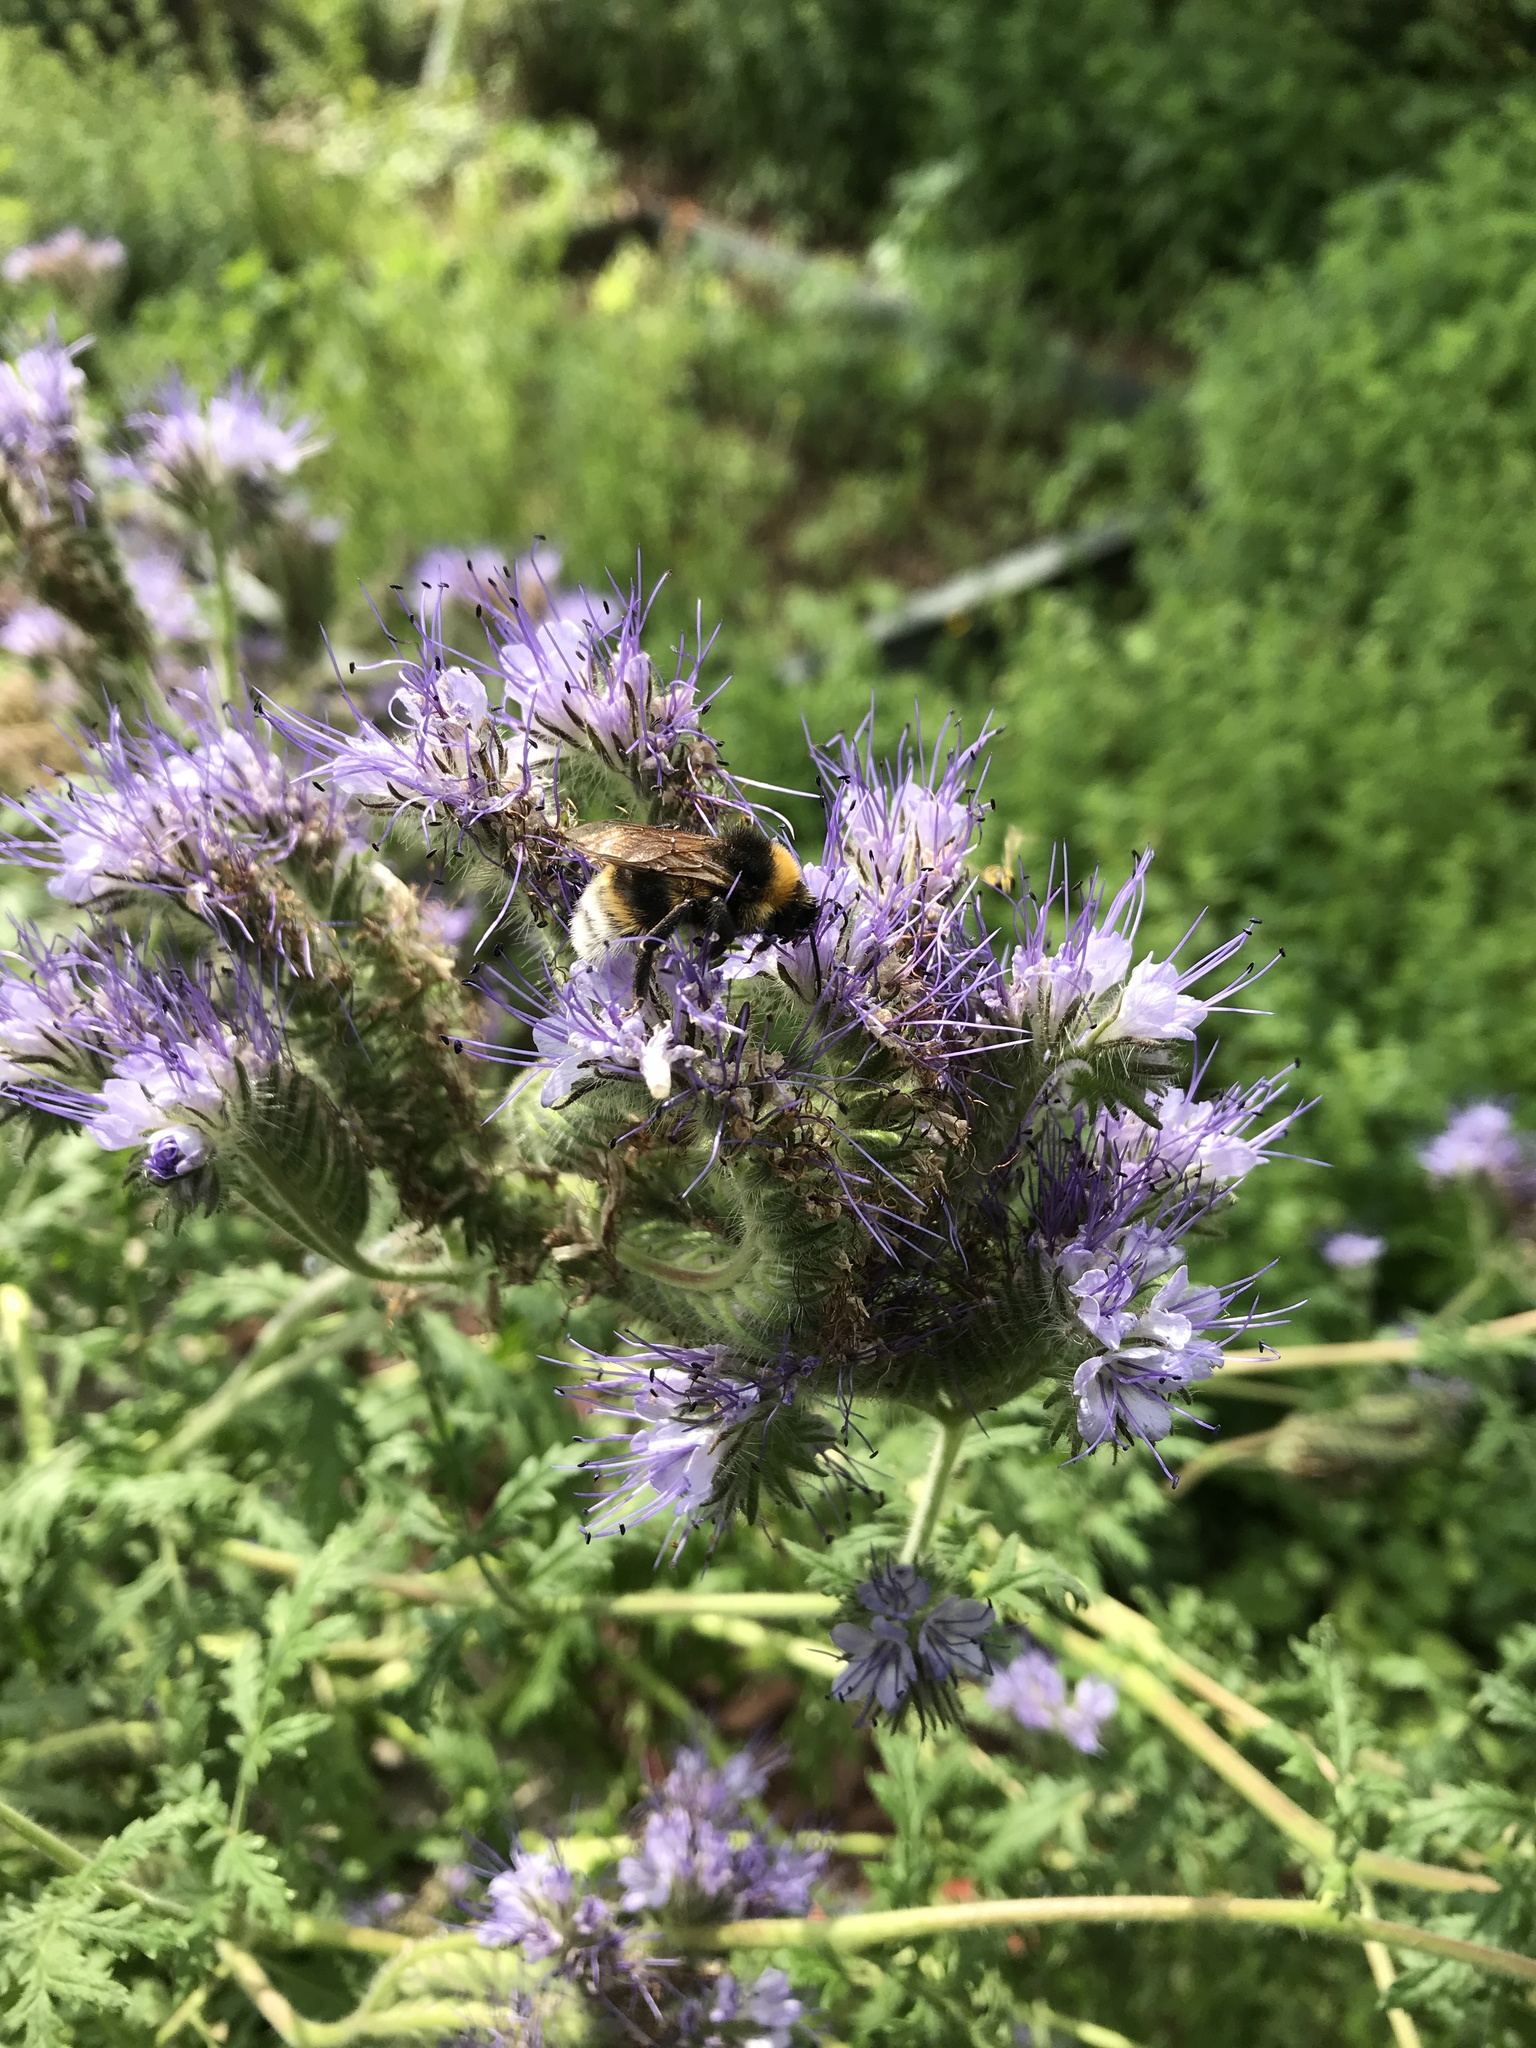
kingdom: Animalia
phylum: Arthropoda
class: Insecta
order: Hymenoptera
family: Apidae
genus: Bombus
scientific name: Bombus vestalis
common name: Vestal cuckoo bee
